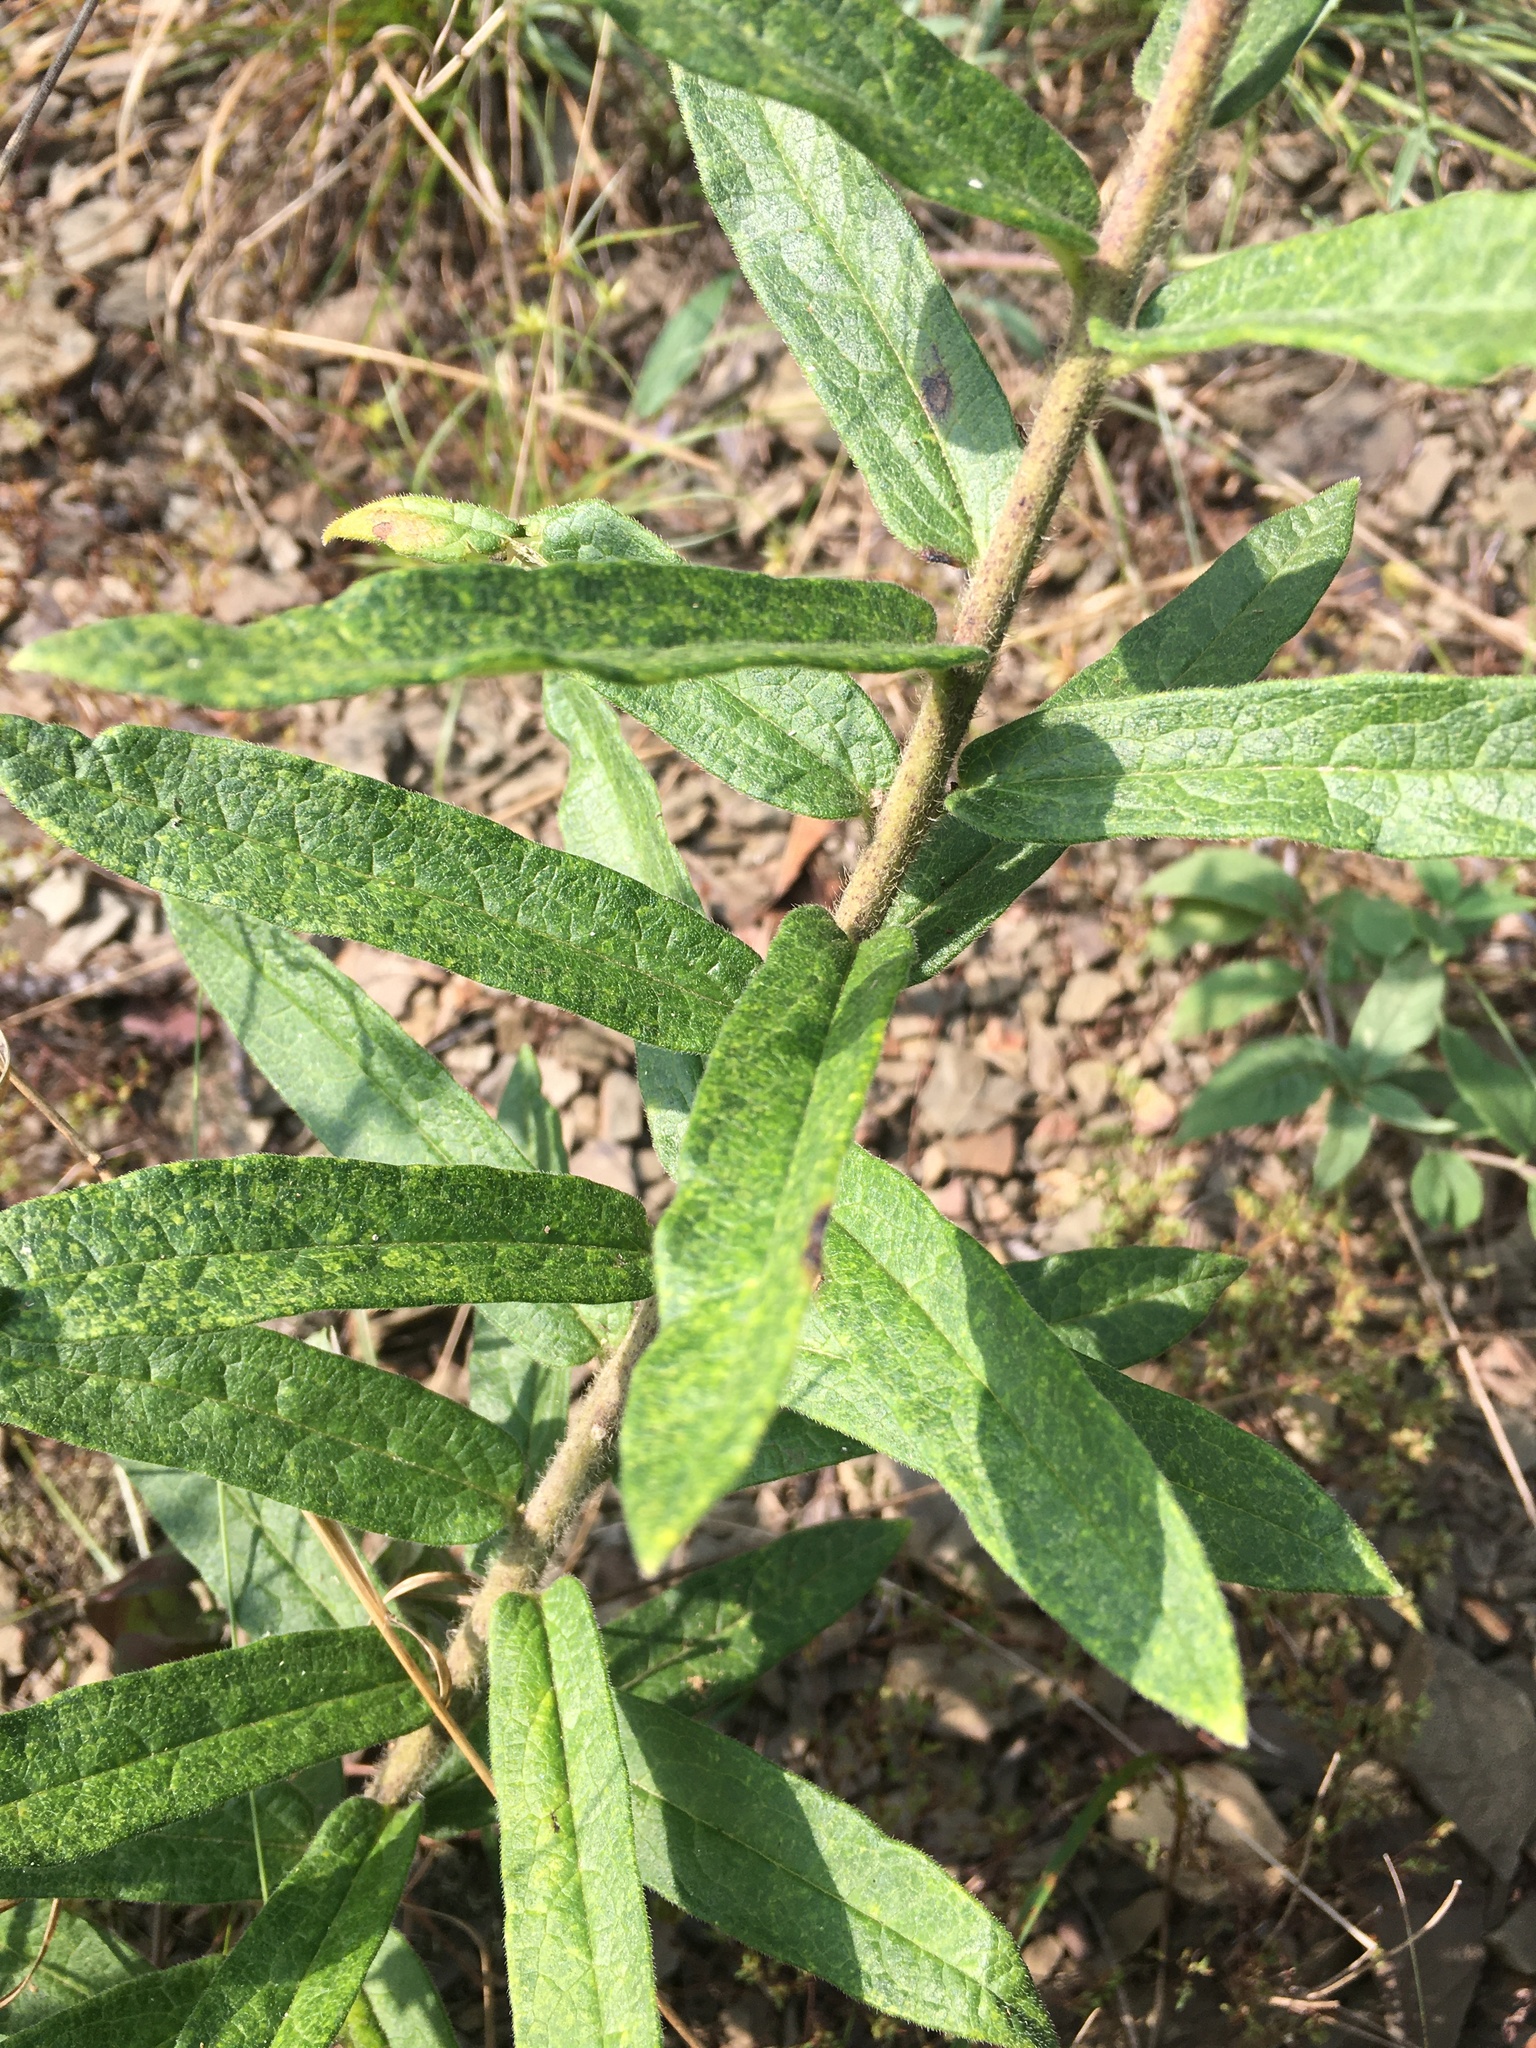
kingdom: Plantae
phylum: Tracheophyta
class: Magnoliopsida
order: Gentianales
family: Apocynaceae
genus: Asclepias
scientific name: Asclepias tuberosa
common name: Butterfly milkweed
